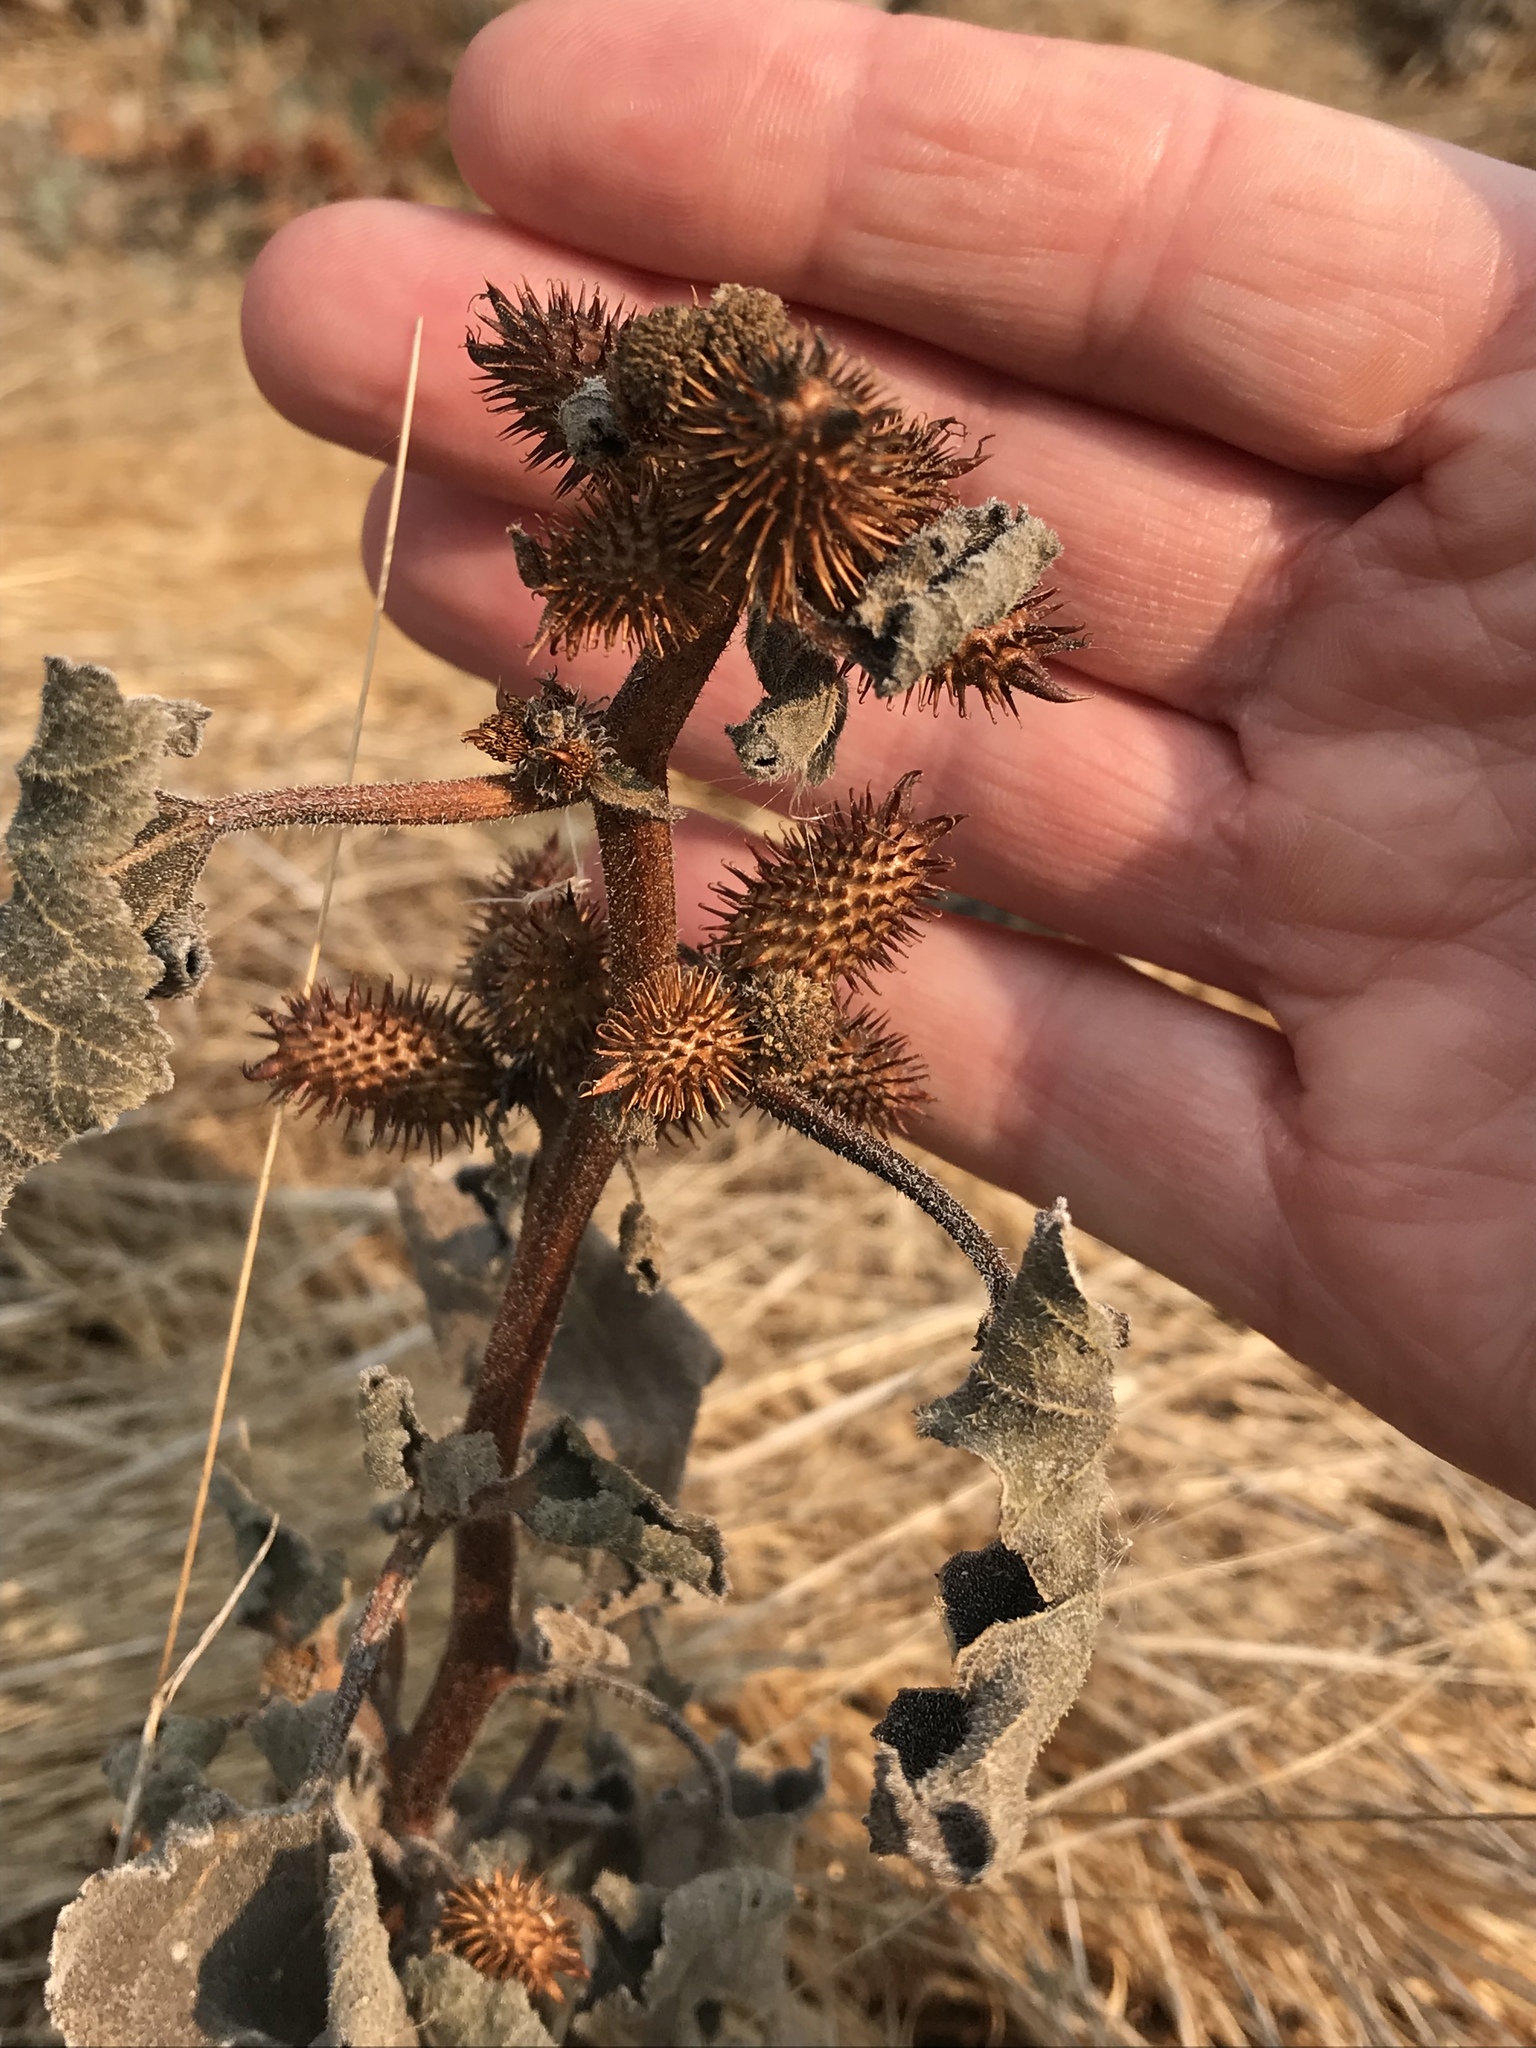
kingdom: Plantae
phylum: Tracheophyta
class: Magnoliopsida
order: Asterales
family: Asteraceae
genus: Xanthium
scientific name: Xanthium strumarium
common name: Rough cocklebur
